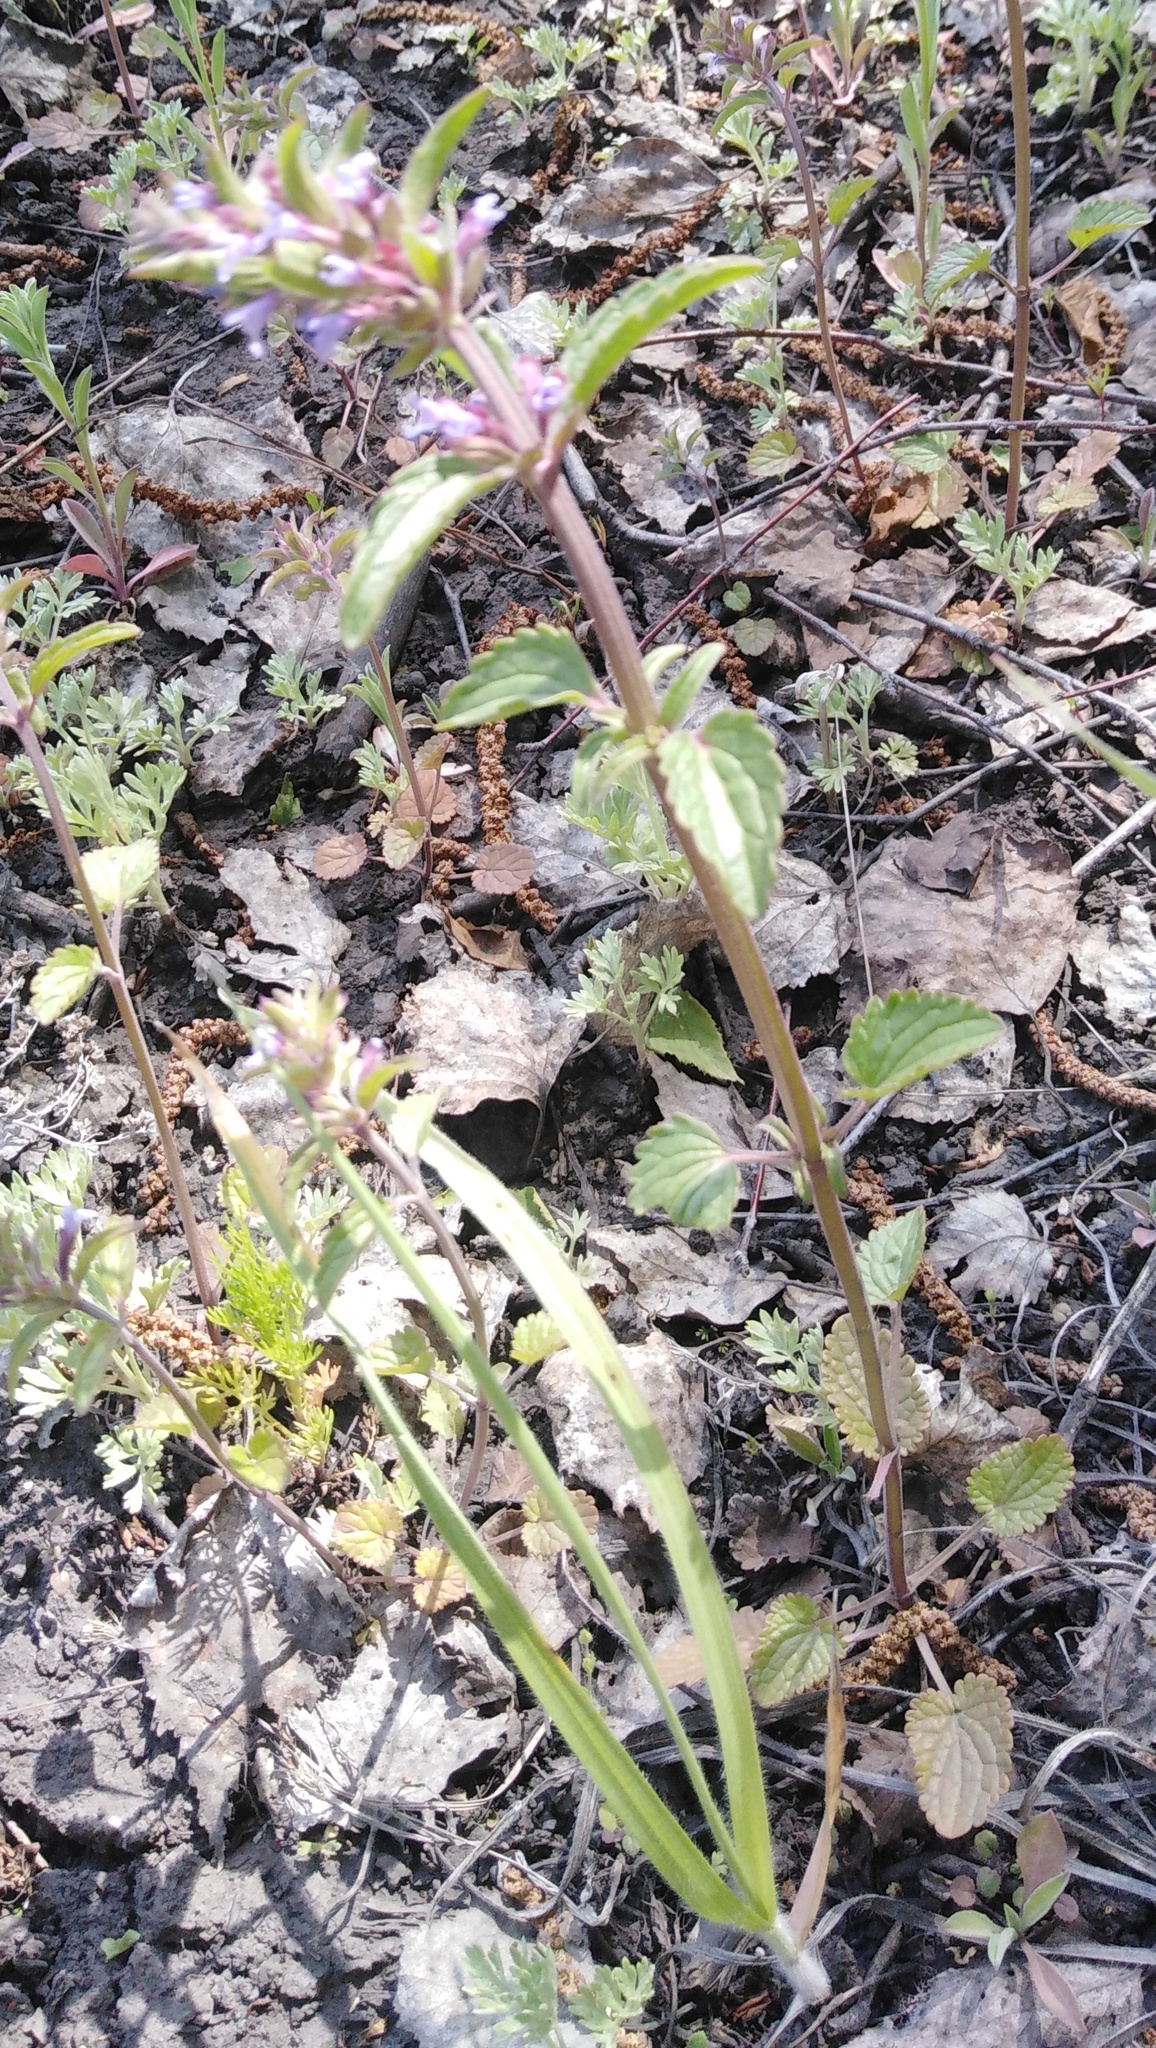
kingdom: Plantae
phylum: Tracheophyta
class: Magnoliopsida
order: Lamiales
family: Lamiaceae
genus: Dracocephalum
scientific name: Dracocephalum thymiflorum
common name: Thymeleaf dragonhead
